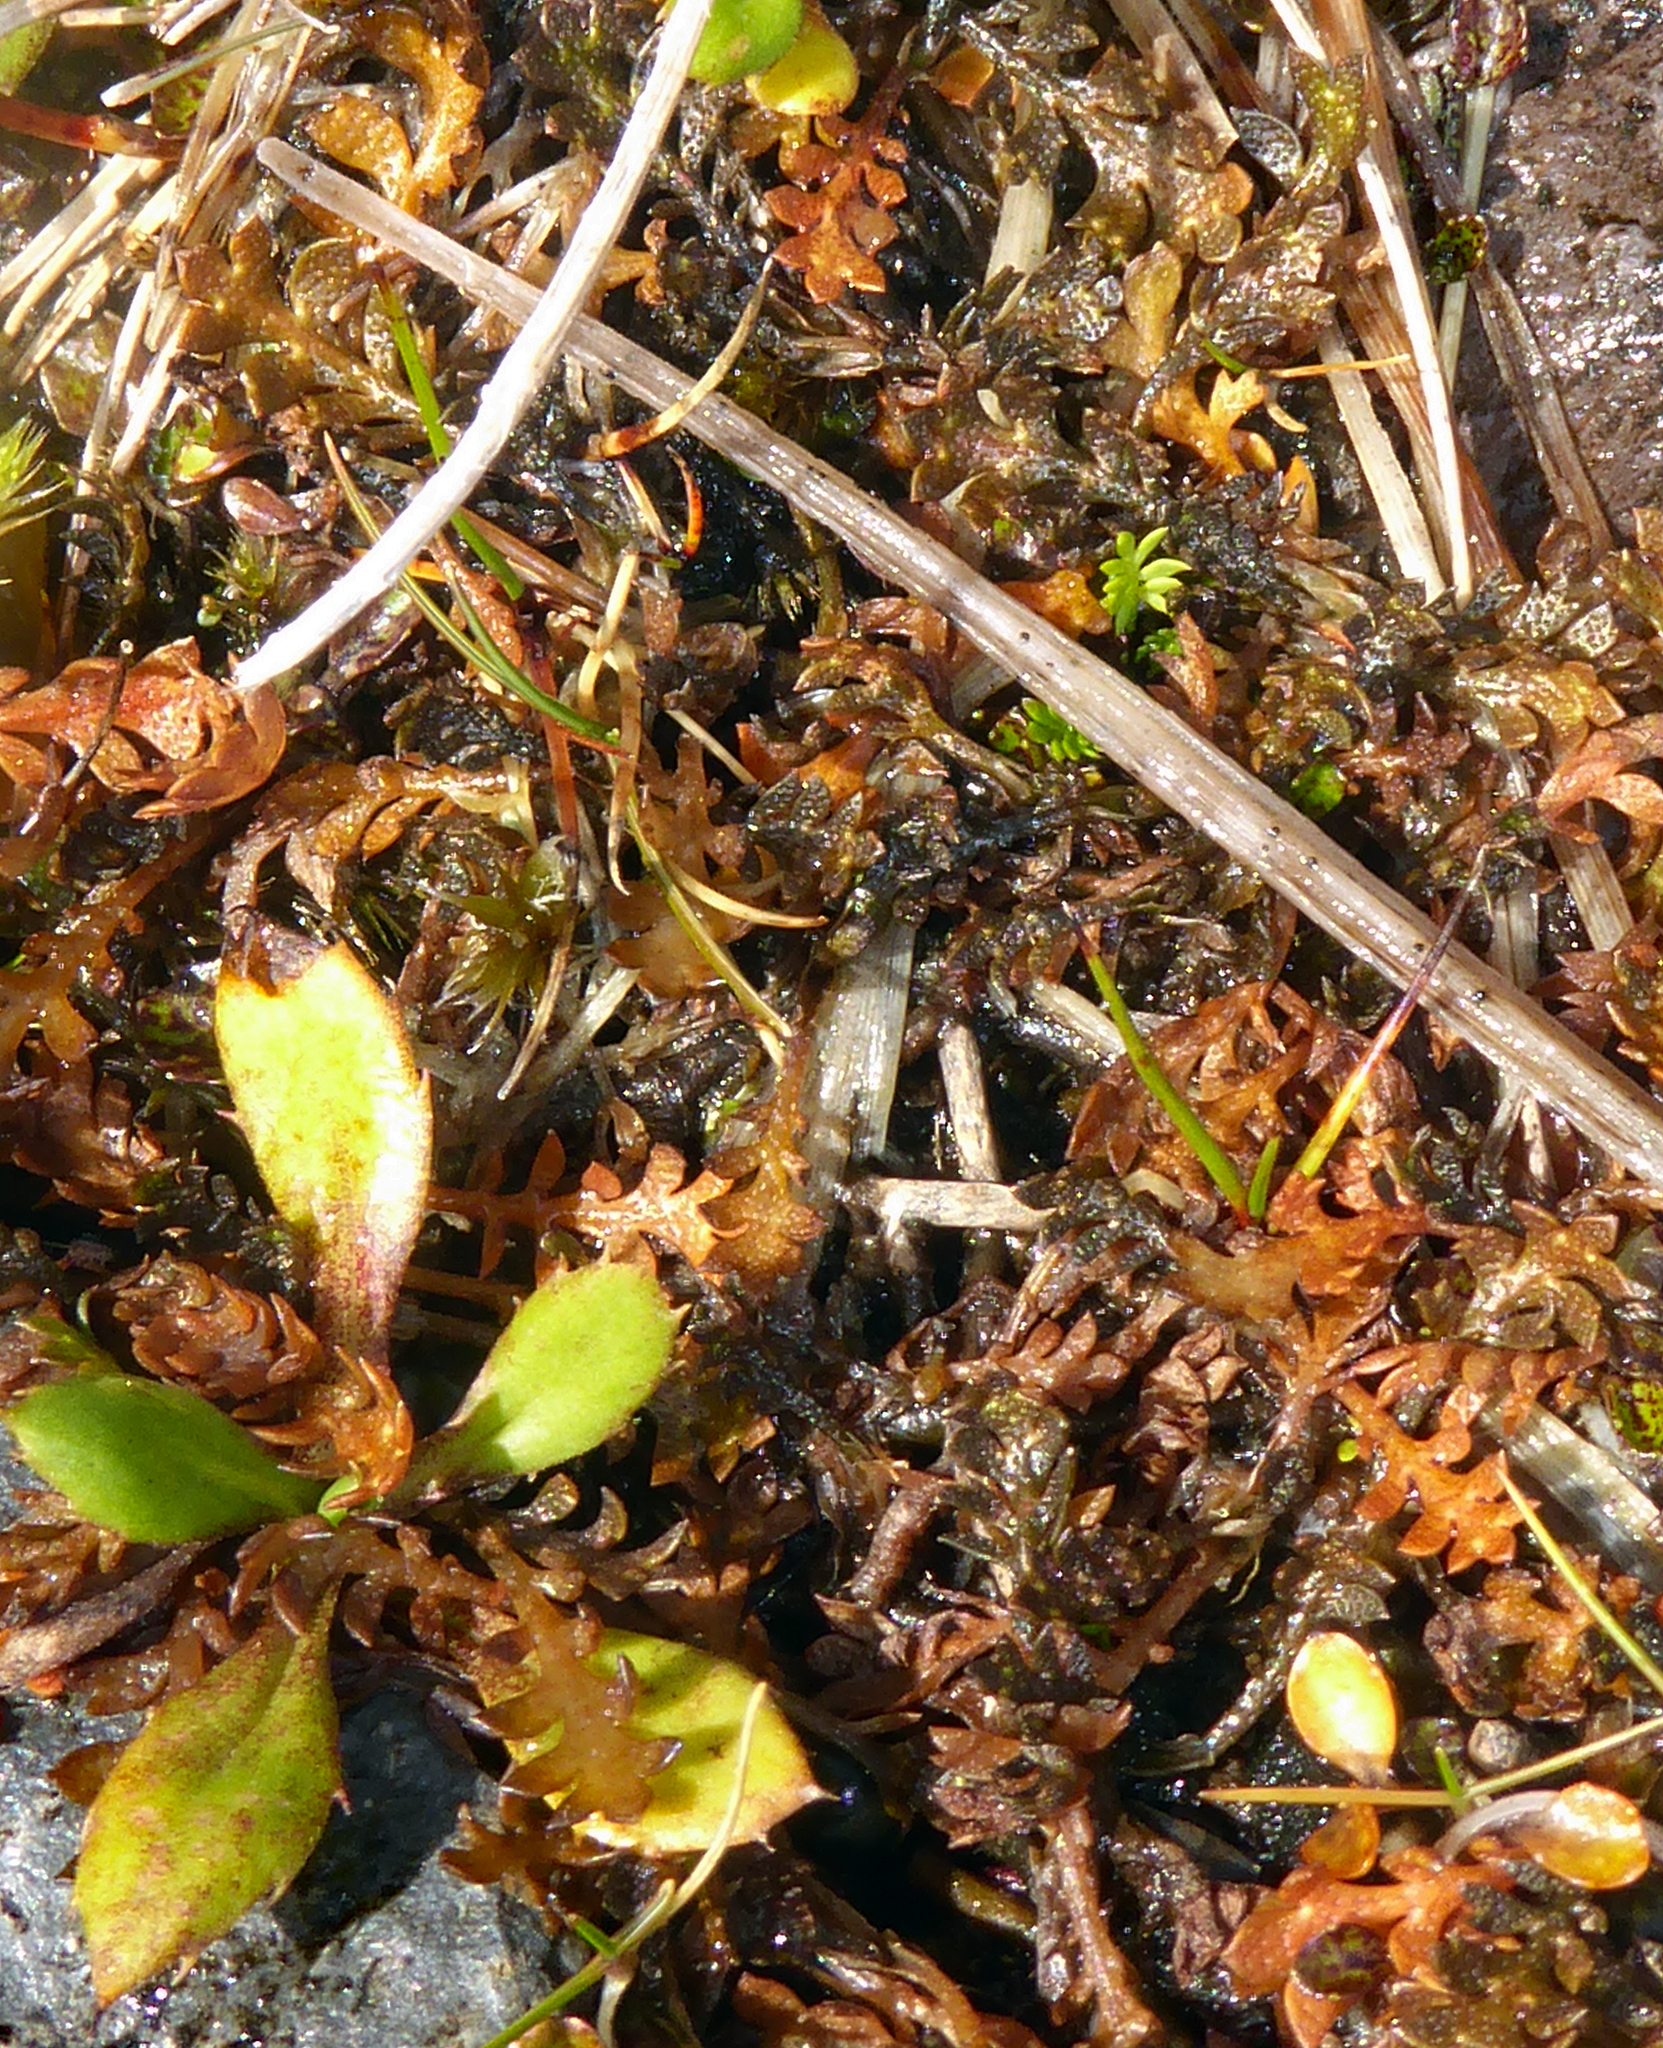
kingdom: Plantae
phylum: Tracheophyta
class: Magnoliopsida
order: Asterales
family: Asteraceae
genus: Leptinella
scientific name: Leptinella squalida
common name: New zealand brass-buttons
